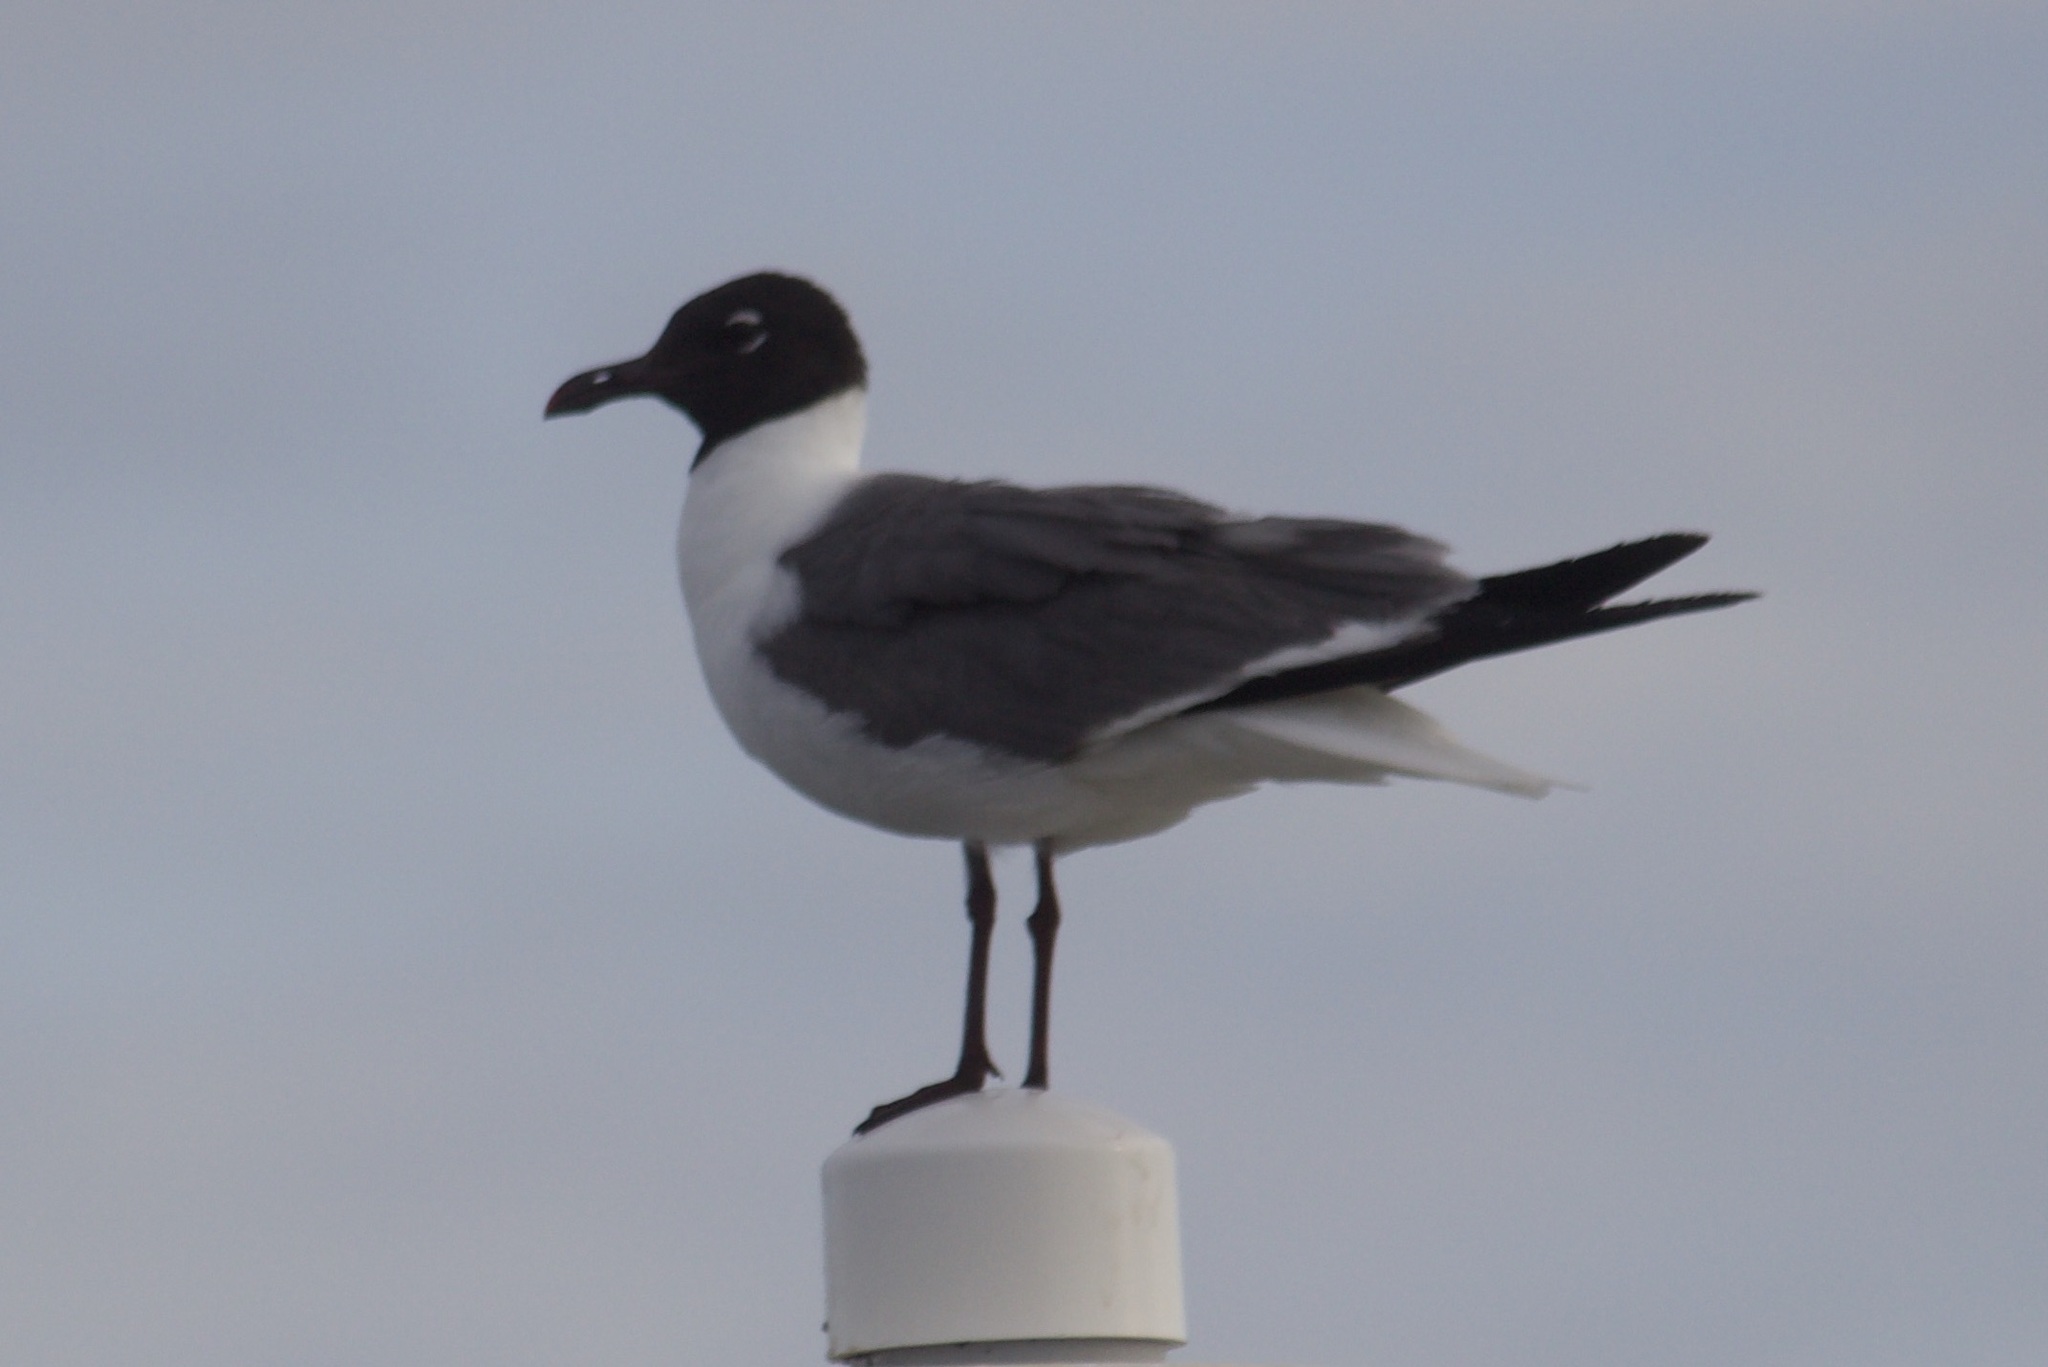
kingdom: Animalia
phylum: Chordata
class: Aves
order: Charadriiformes
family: Laridae
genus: Leucophaeus
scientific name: Leucophaeus atricilla
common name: Laughing gull
